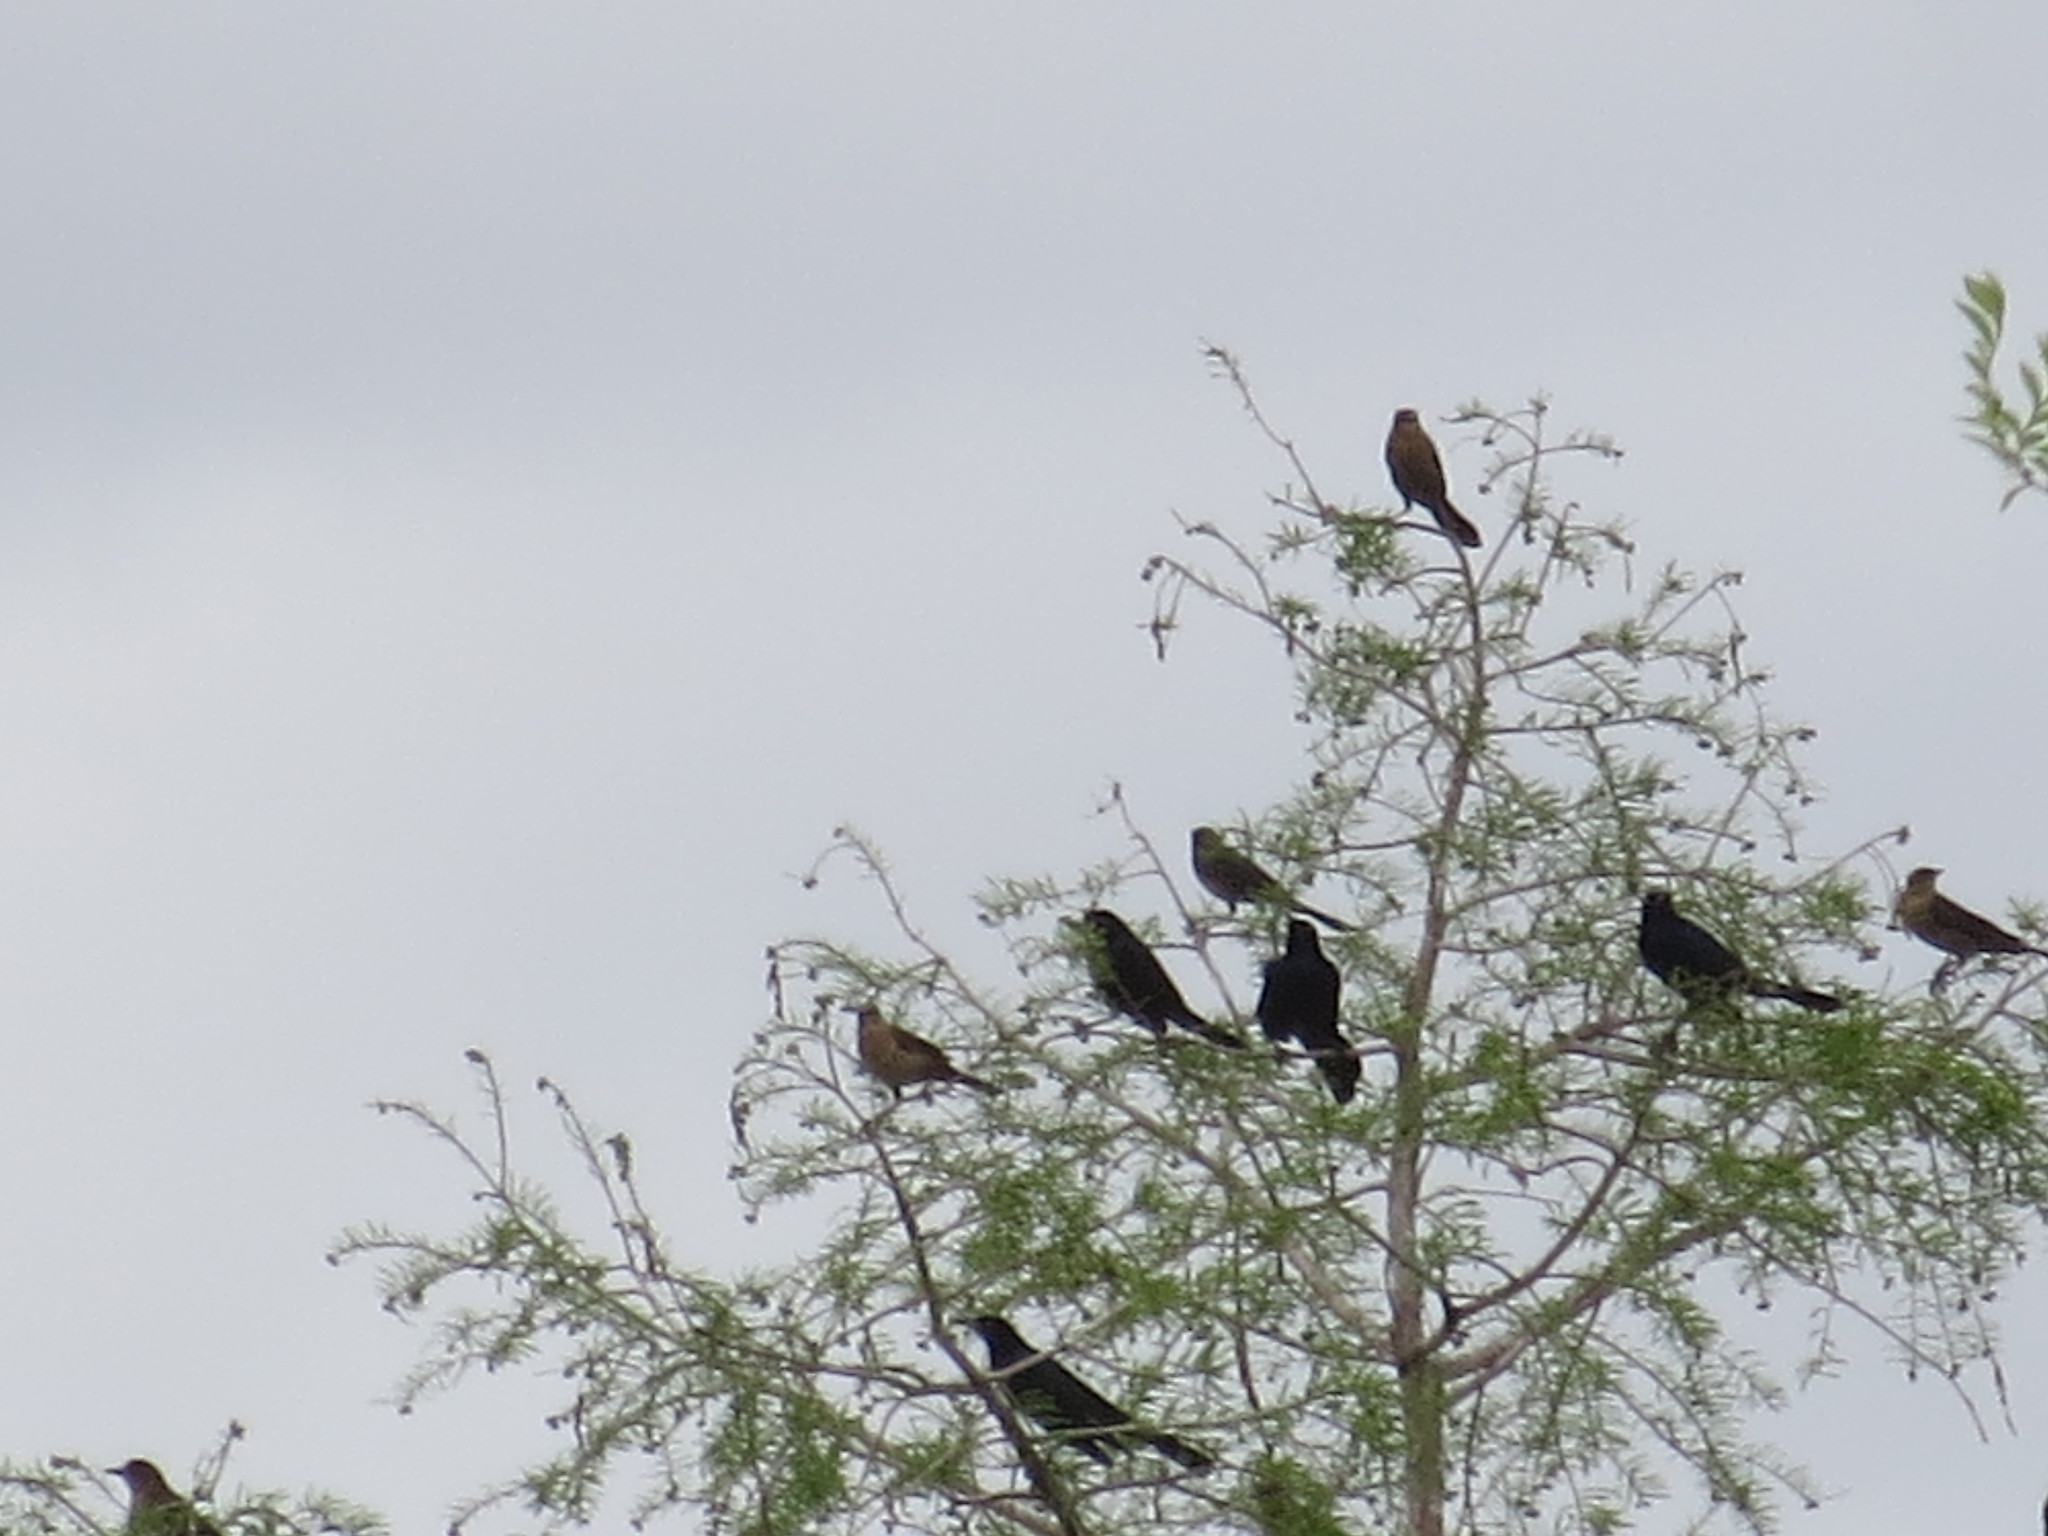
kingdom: Animalia
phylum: Chordata
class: Aves
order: Passeriformes
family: Icteridae
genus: Quiscalus
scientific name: Quiscalus major
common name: Boat-tailed grackle
